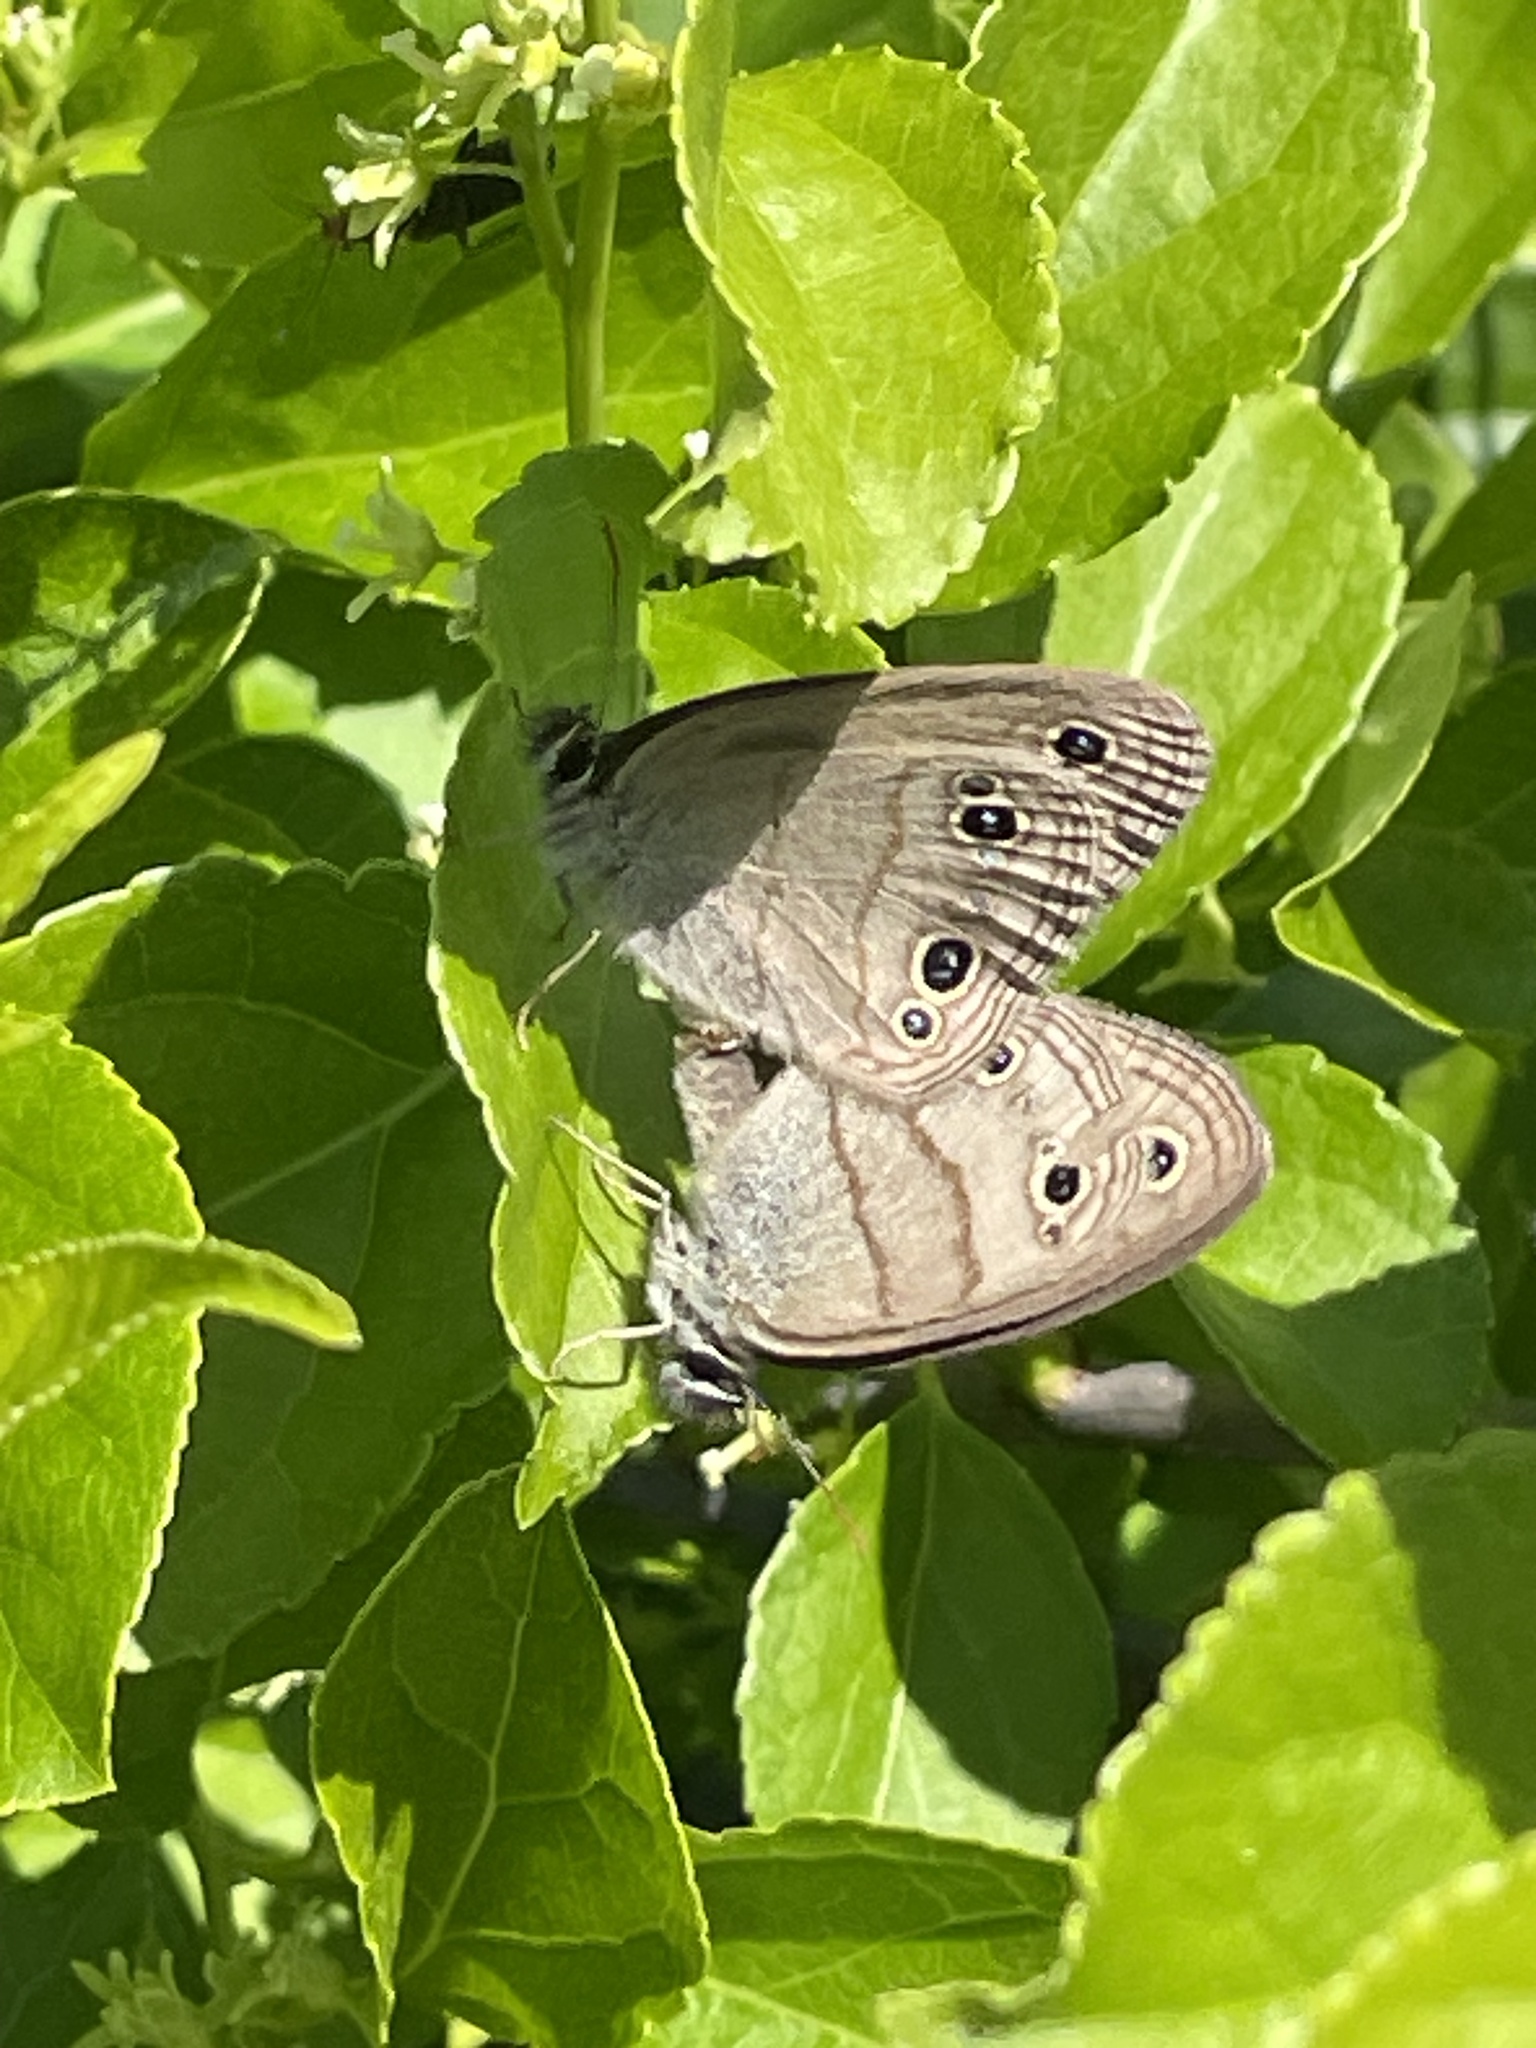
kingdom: Animalia
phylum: Arthropoda
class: Insecta
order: Lepidoptera
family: Nymphalidae
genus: Euptychia
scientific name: Euptychia cymela
